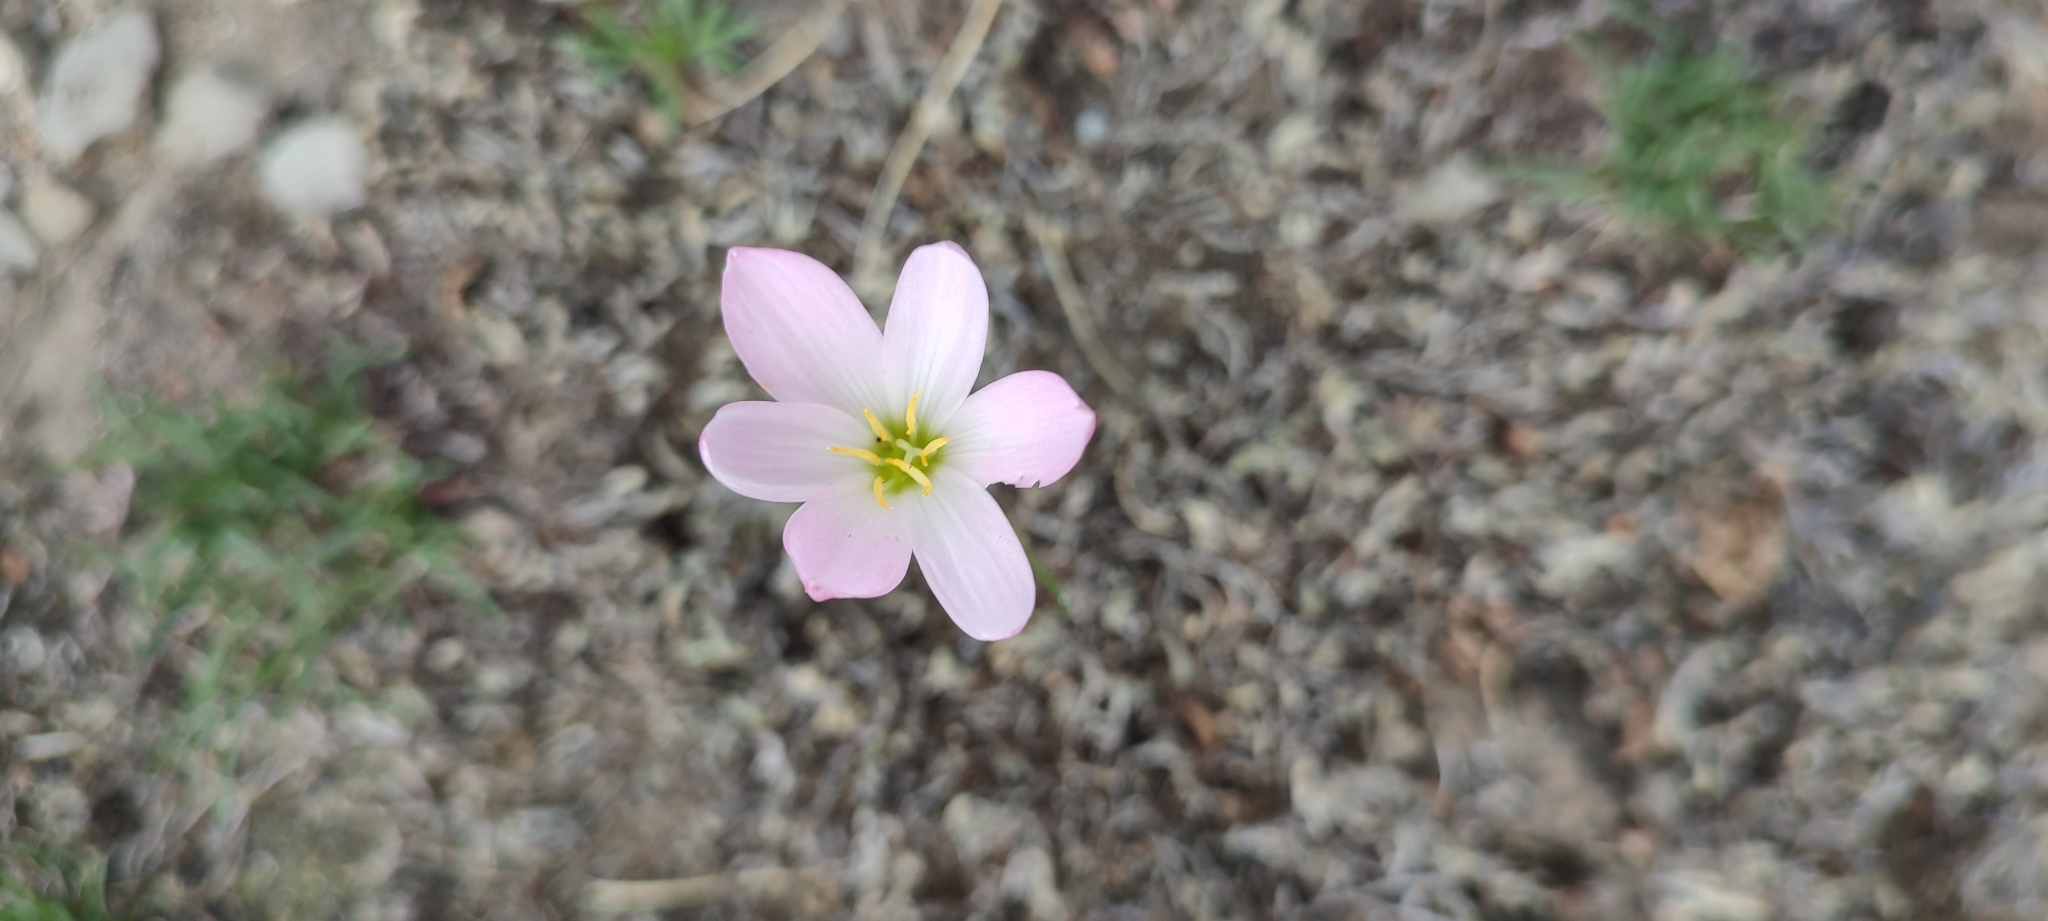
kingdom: Plantae
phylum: Tracheophyta
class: Liliopsida
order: Asparagales
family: Amaryllidaceae
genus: Zephyranthes
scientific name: Zephyranthes concolor
